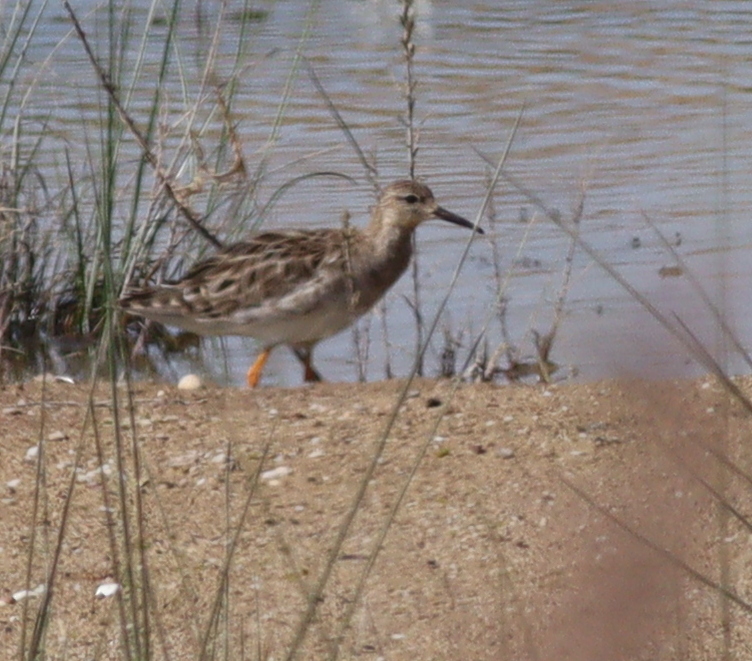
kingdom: Animalia
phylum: Chordata
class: Aves
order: Charadriiformes
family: Scolopacidae
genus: Calidris
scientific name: Calidris pugnax
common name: Ruff
